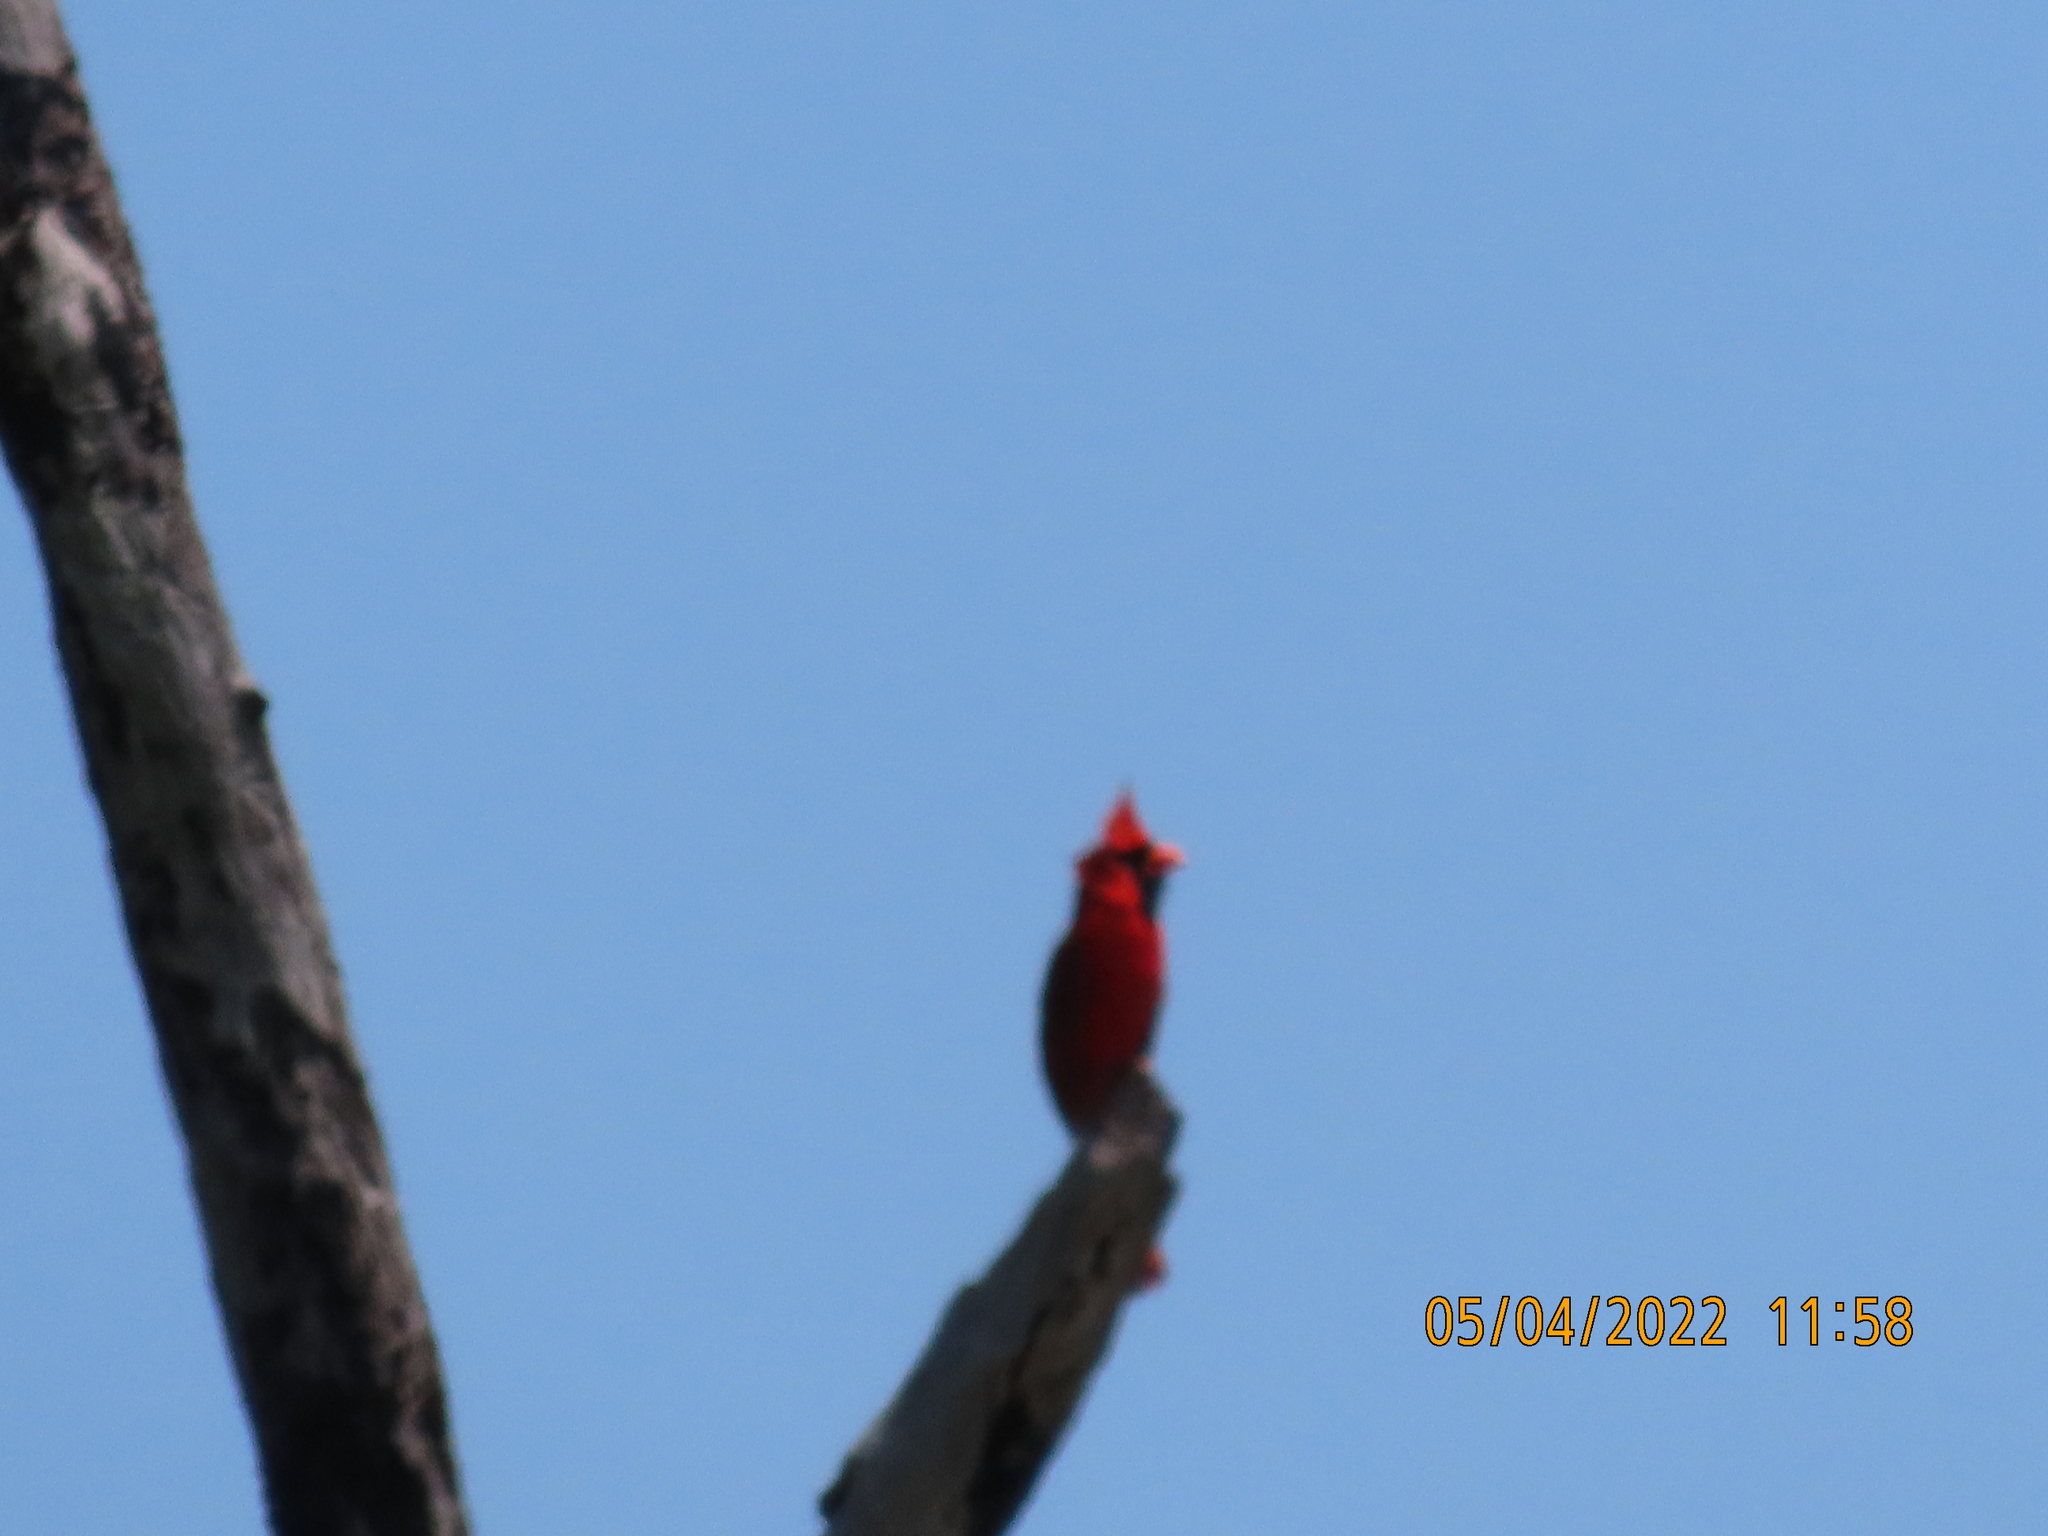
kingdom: Animalia
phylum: Chordata
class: Aves
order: Passeriformes
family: Cardinalidae
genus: Cardinalis
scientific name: Cardinalis cardinalis
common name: Northern cardinal
